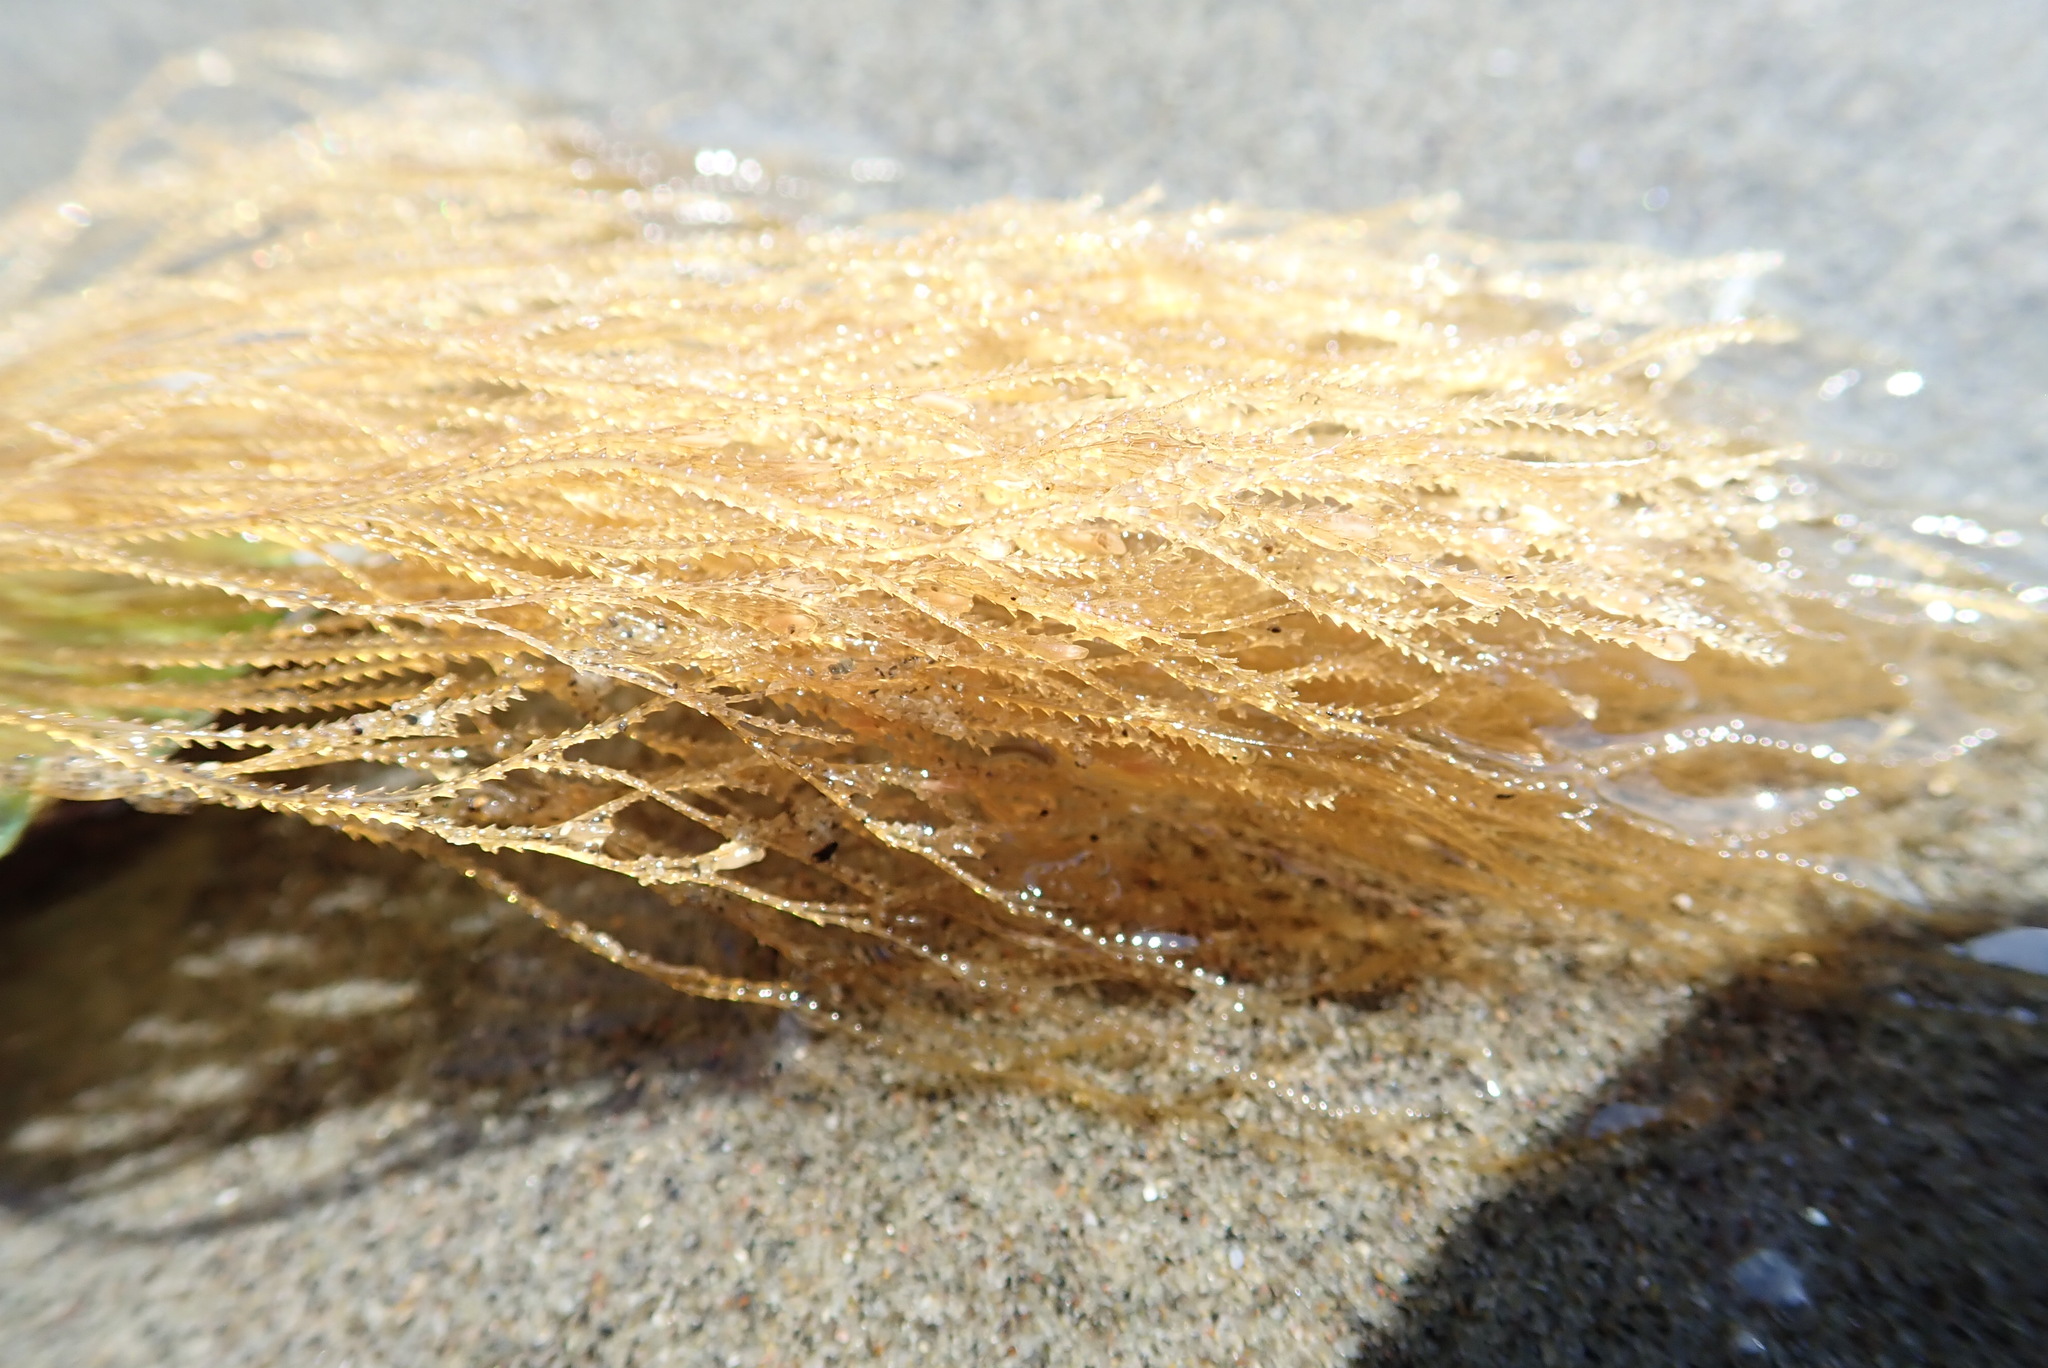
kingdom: Animalia
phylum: Cnidaria
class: Hydrozoa
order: Leptothecata
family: Sertulariidae
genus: Amphisbetia
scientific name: Amphisbetia bispinosa
